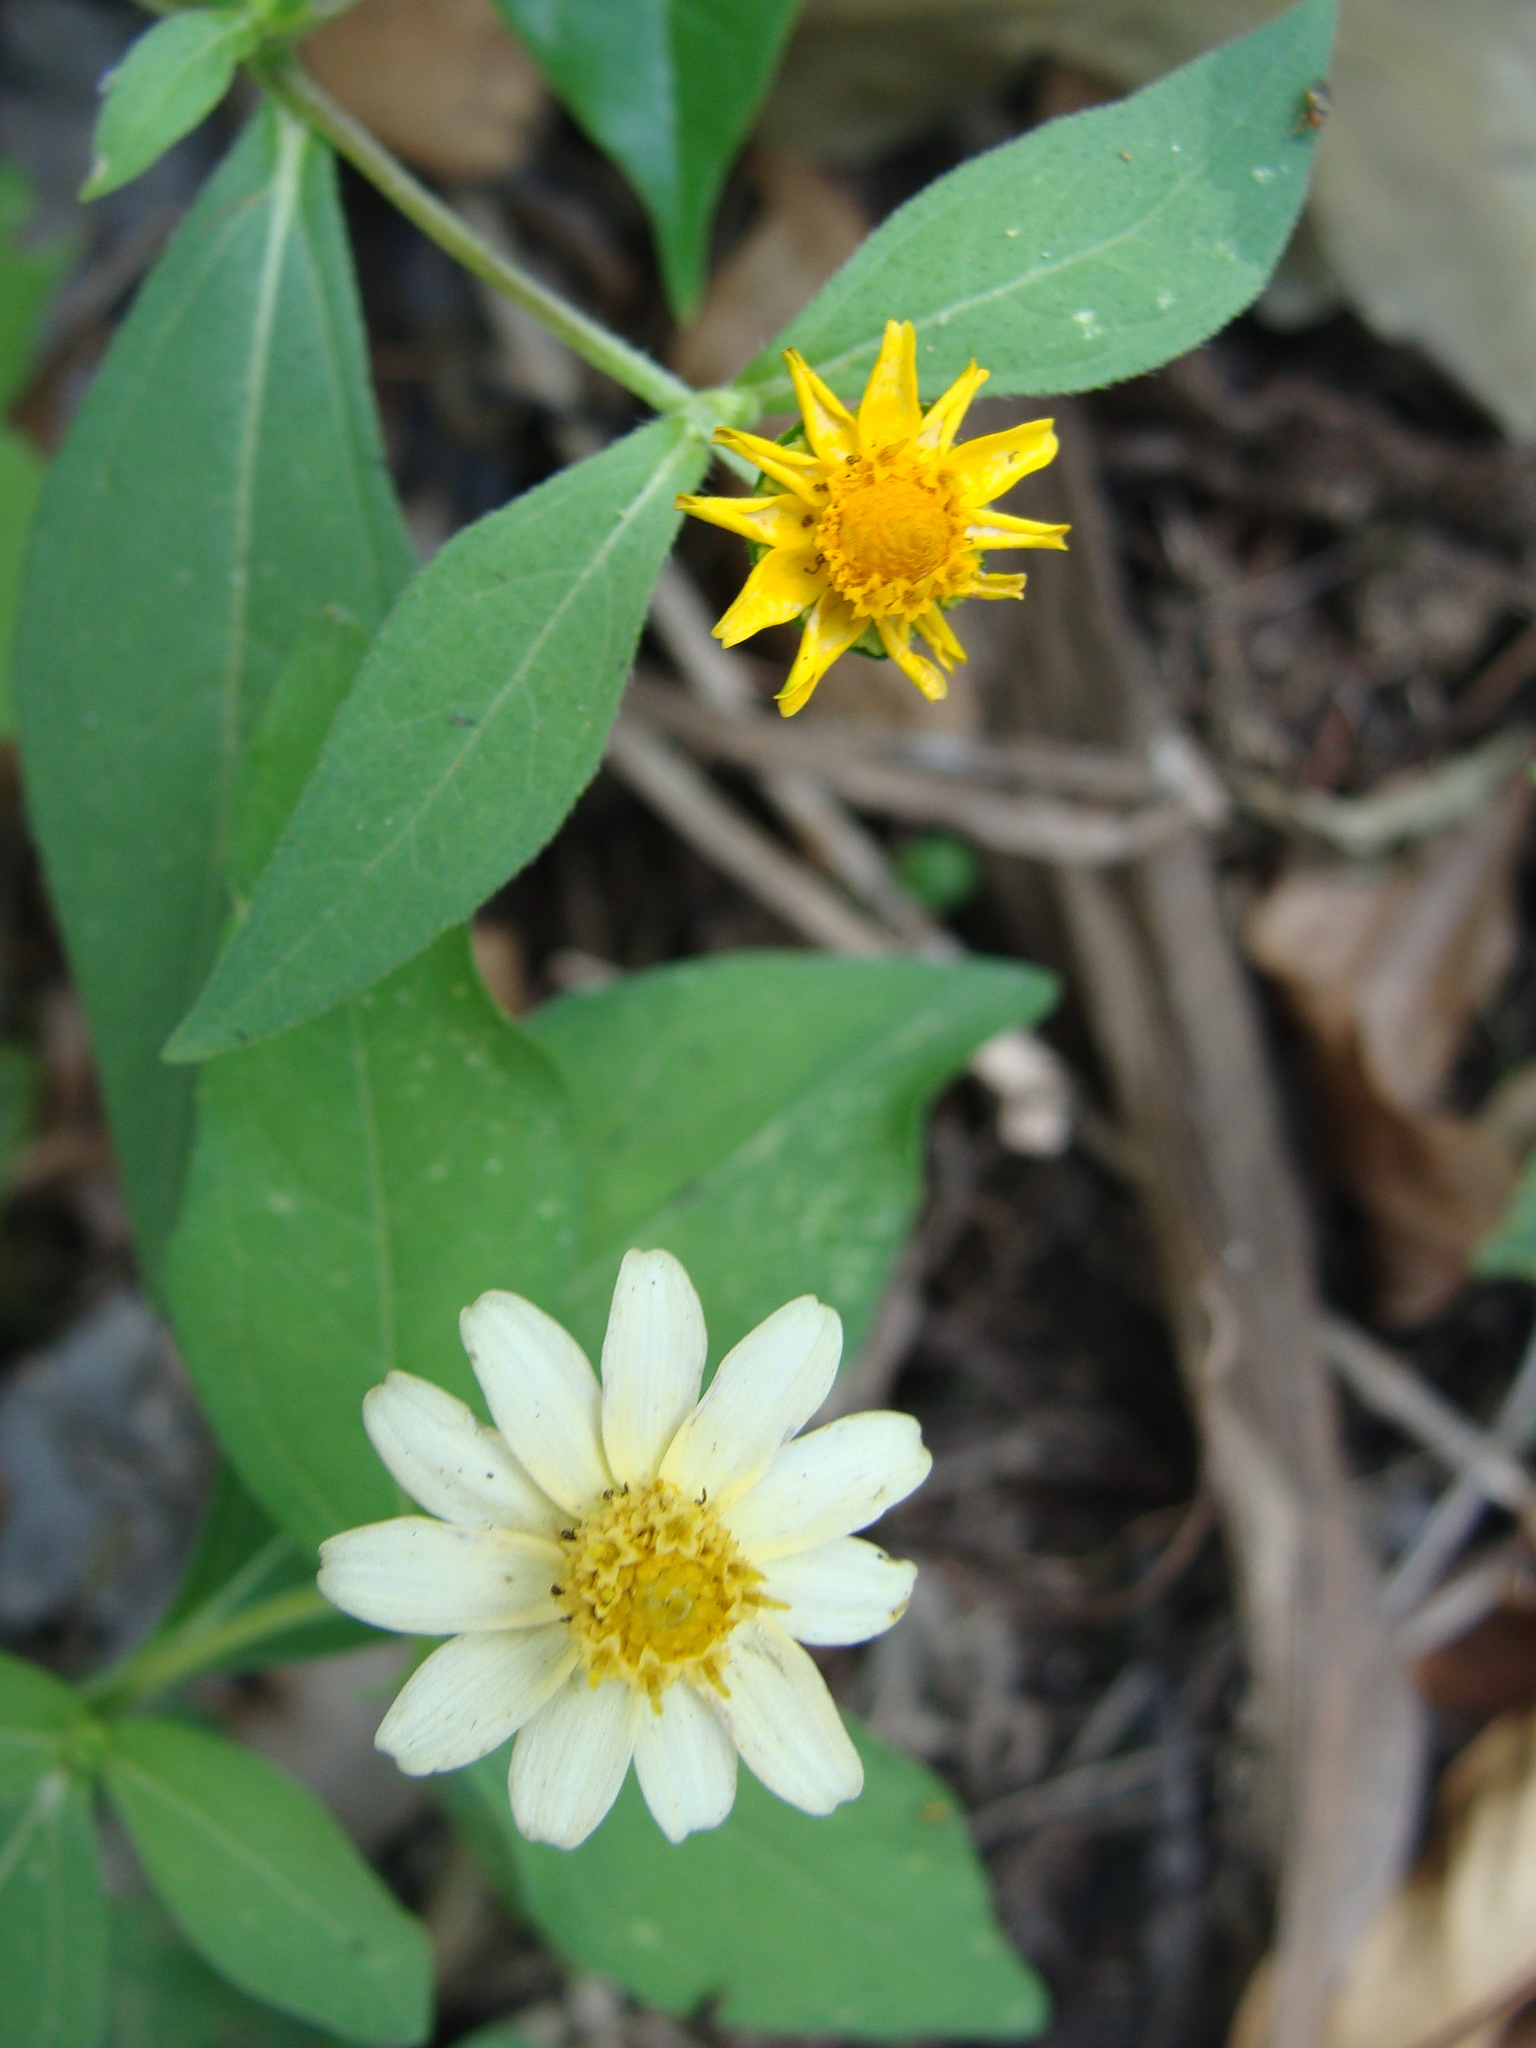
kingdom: Plantae
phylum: Tracheophyta
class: Magnoliopsida
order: Asterales
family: Asteraceae
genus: Melampodium
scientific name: Melampodium divaricatum
